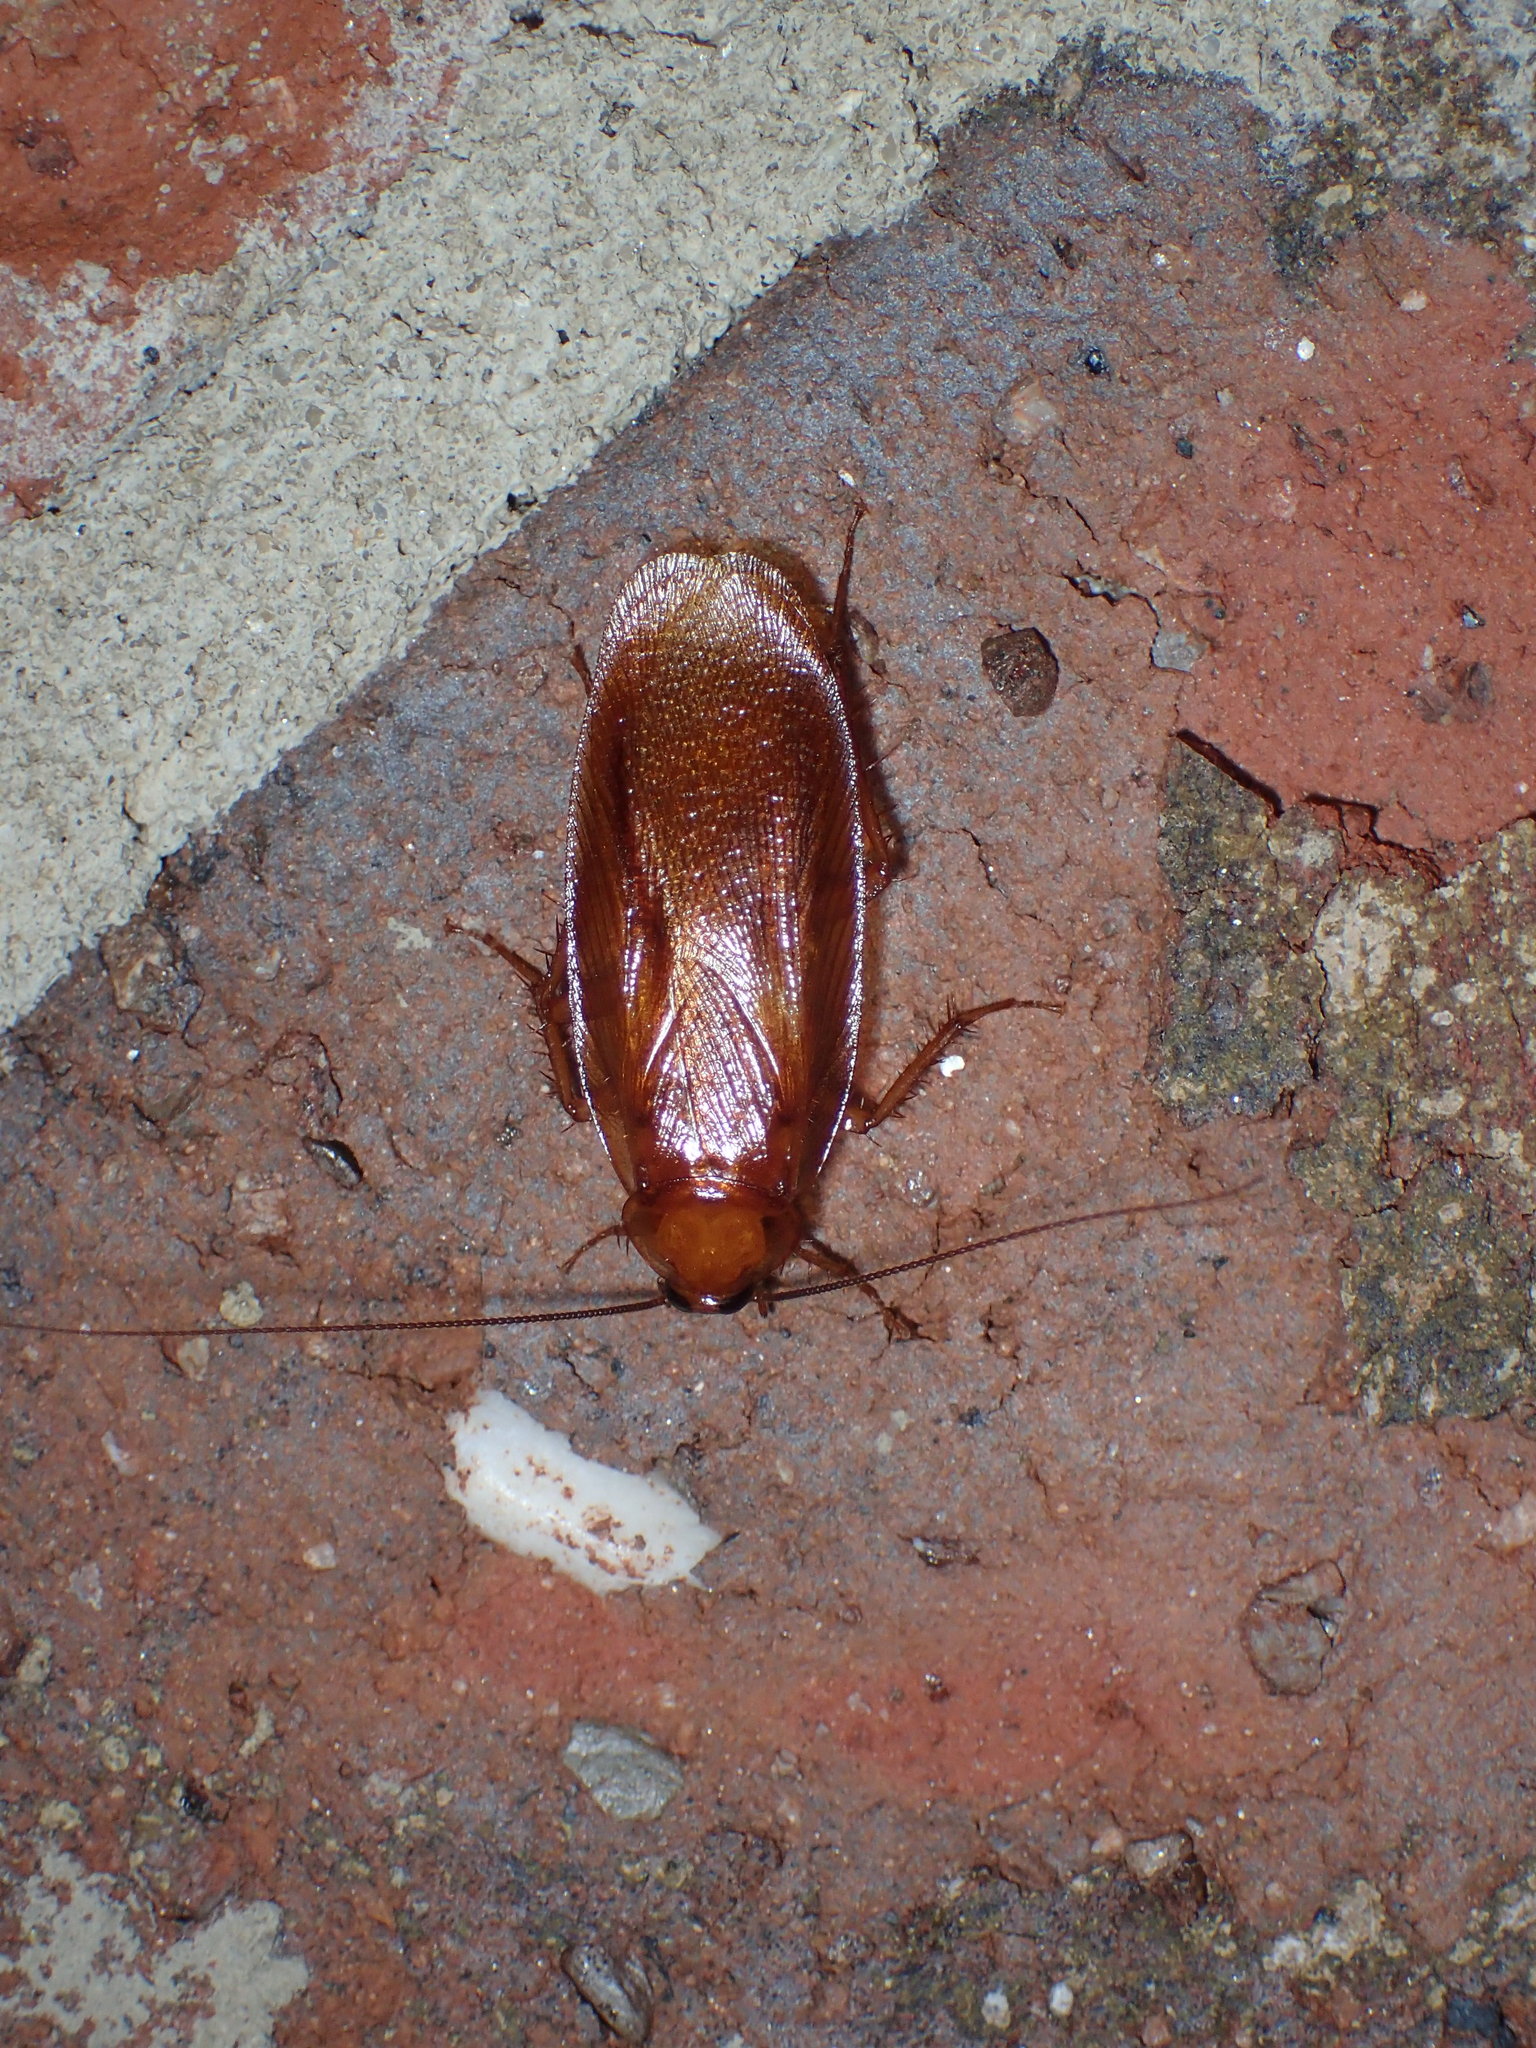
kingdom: Animalia
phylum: Arthropoda
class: Insecta
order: Blattodea
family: Ectobiidae
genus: Parcoblatta
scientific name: Parcoblatta uhleriana
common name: Uhler's wood cockroach
